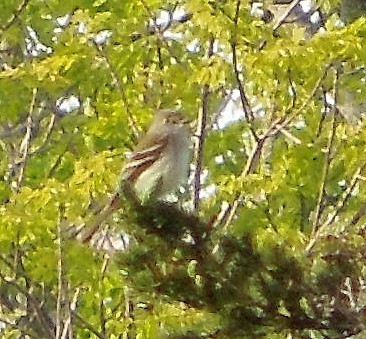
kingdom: Animalia
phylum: Chordata
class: Aves
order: Passeriformes
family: Tyrannidae
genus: Empidonax
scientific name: Empidonax
